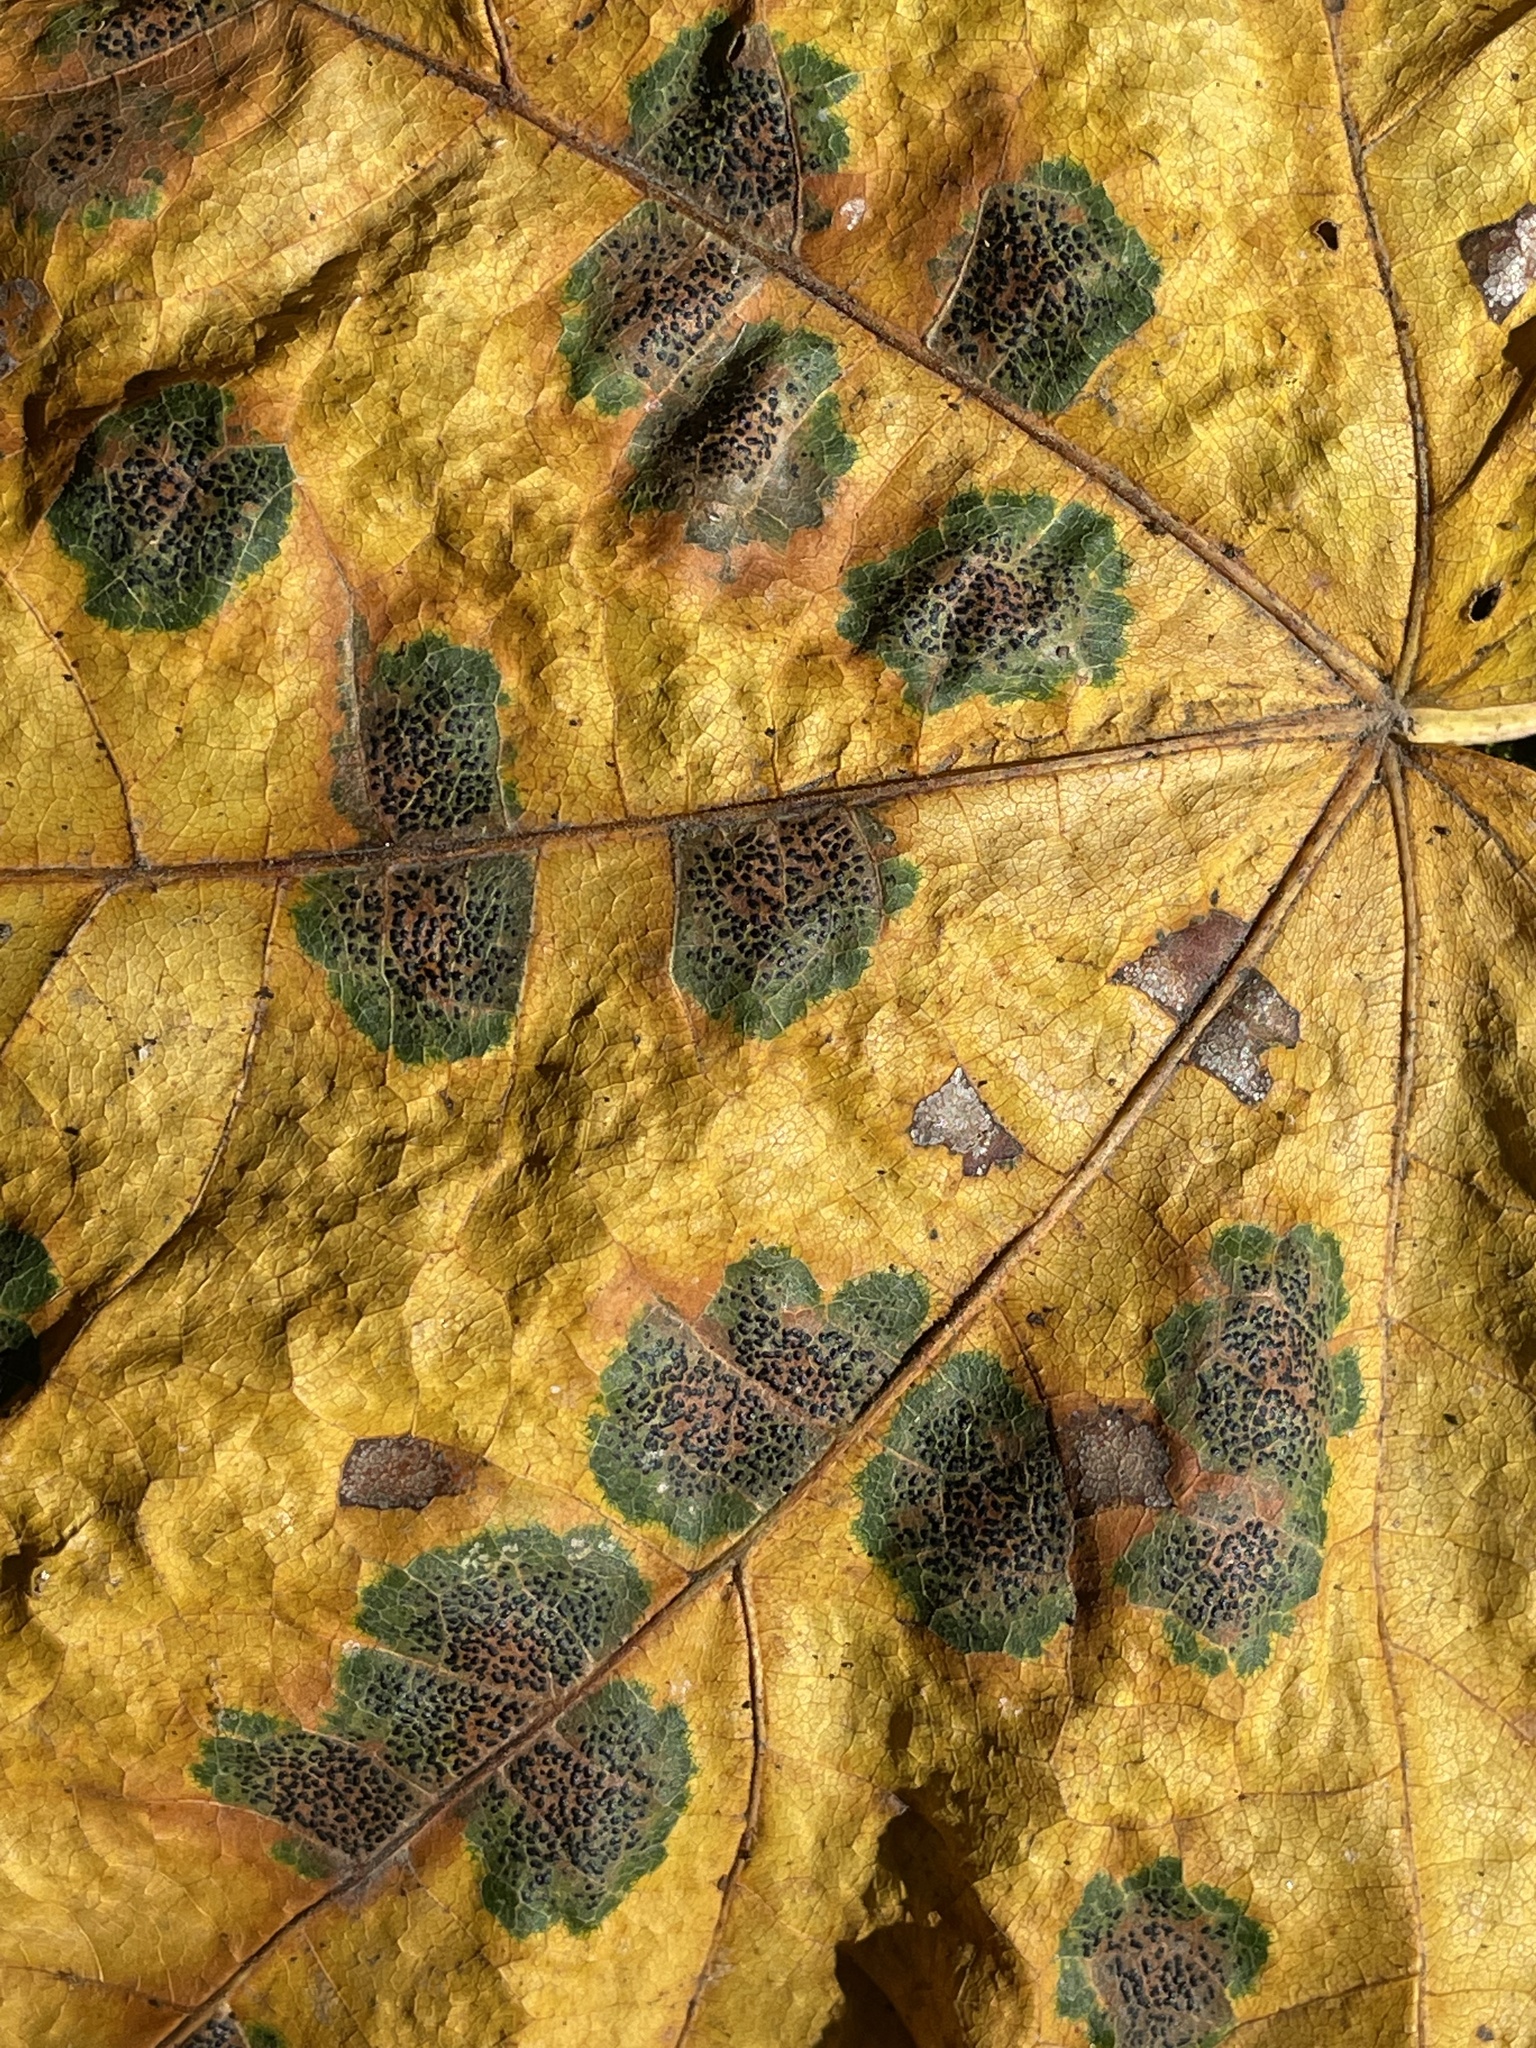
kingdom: Fungi
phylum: Ascomycota
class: Leotiomycetes
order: Rhytismatales
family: Rhytismataceae
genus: Rhytisma
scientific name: Rhytisma punctatum
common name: Speckled tar spot
